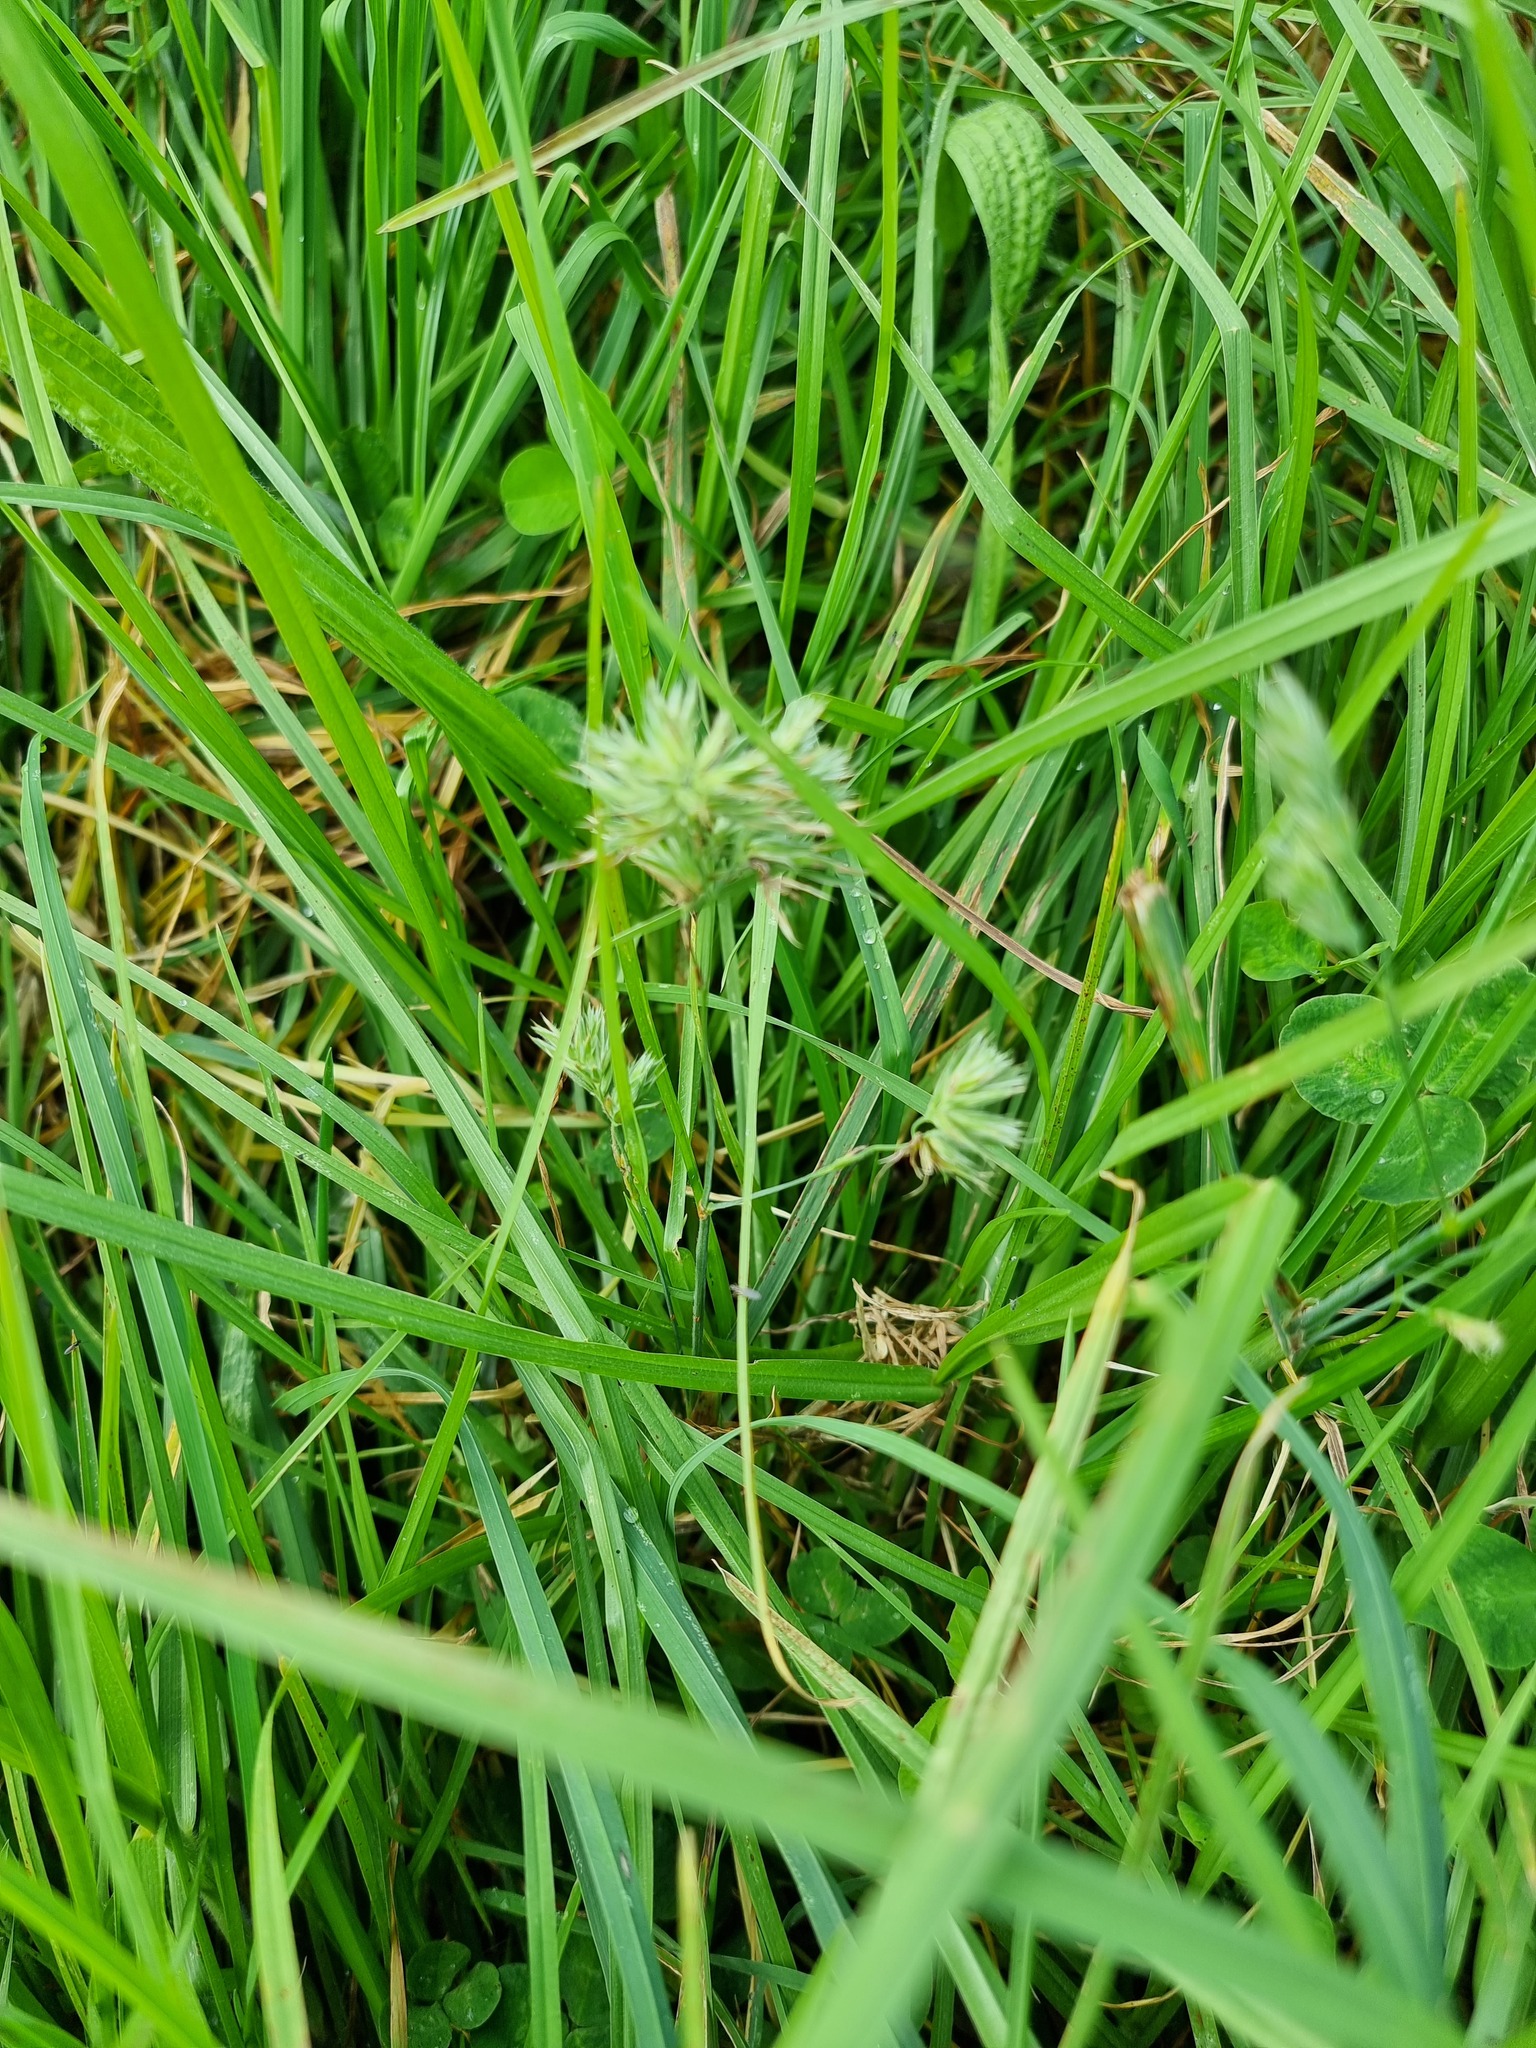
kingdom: Plantae
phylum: Tracheophyta
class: Liliopsida
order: Poales
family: Poaceae
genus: Dactylis
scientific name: Dactylis glomerata
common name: Orchardgrass
